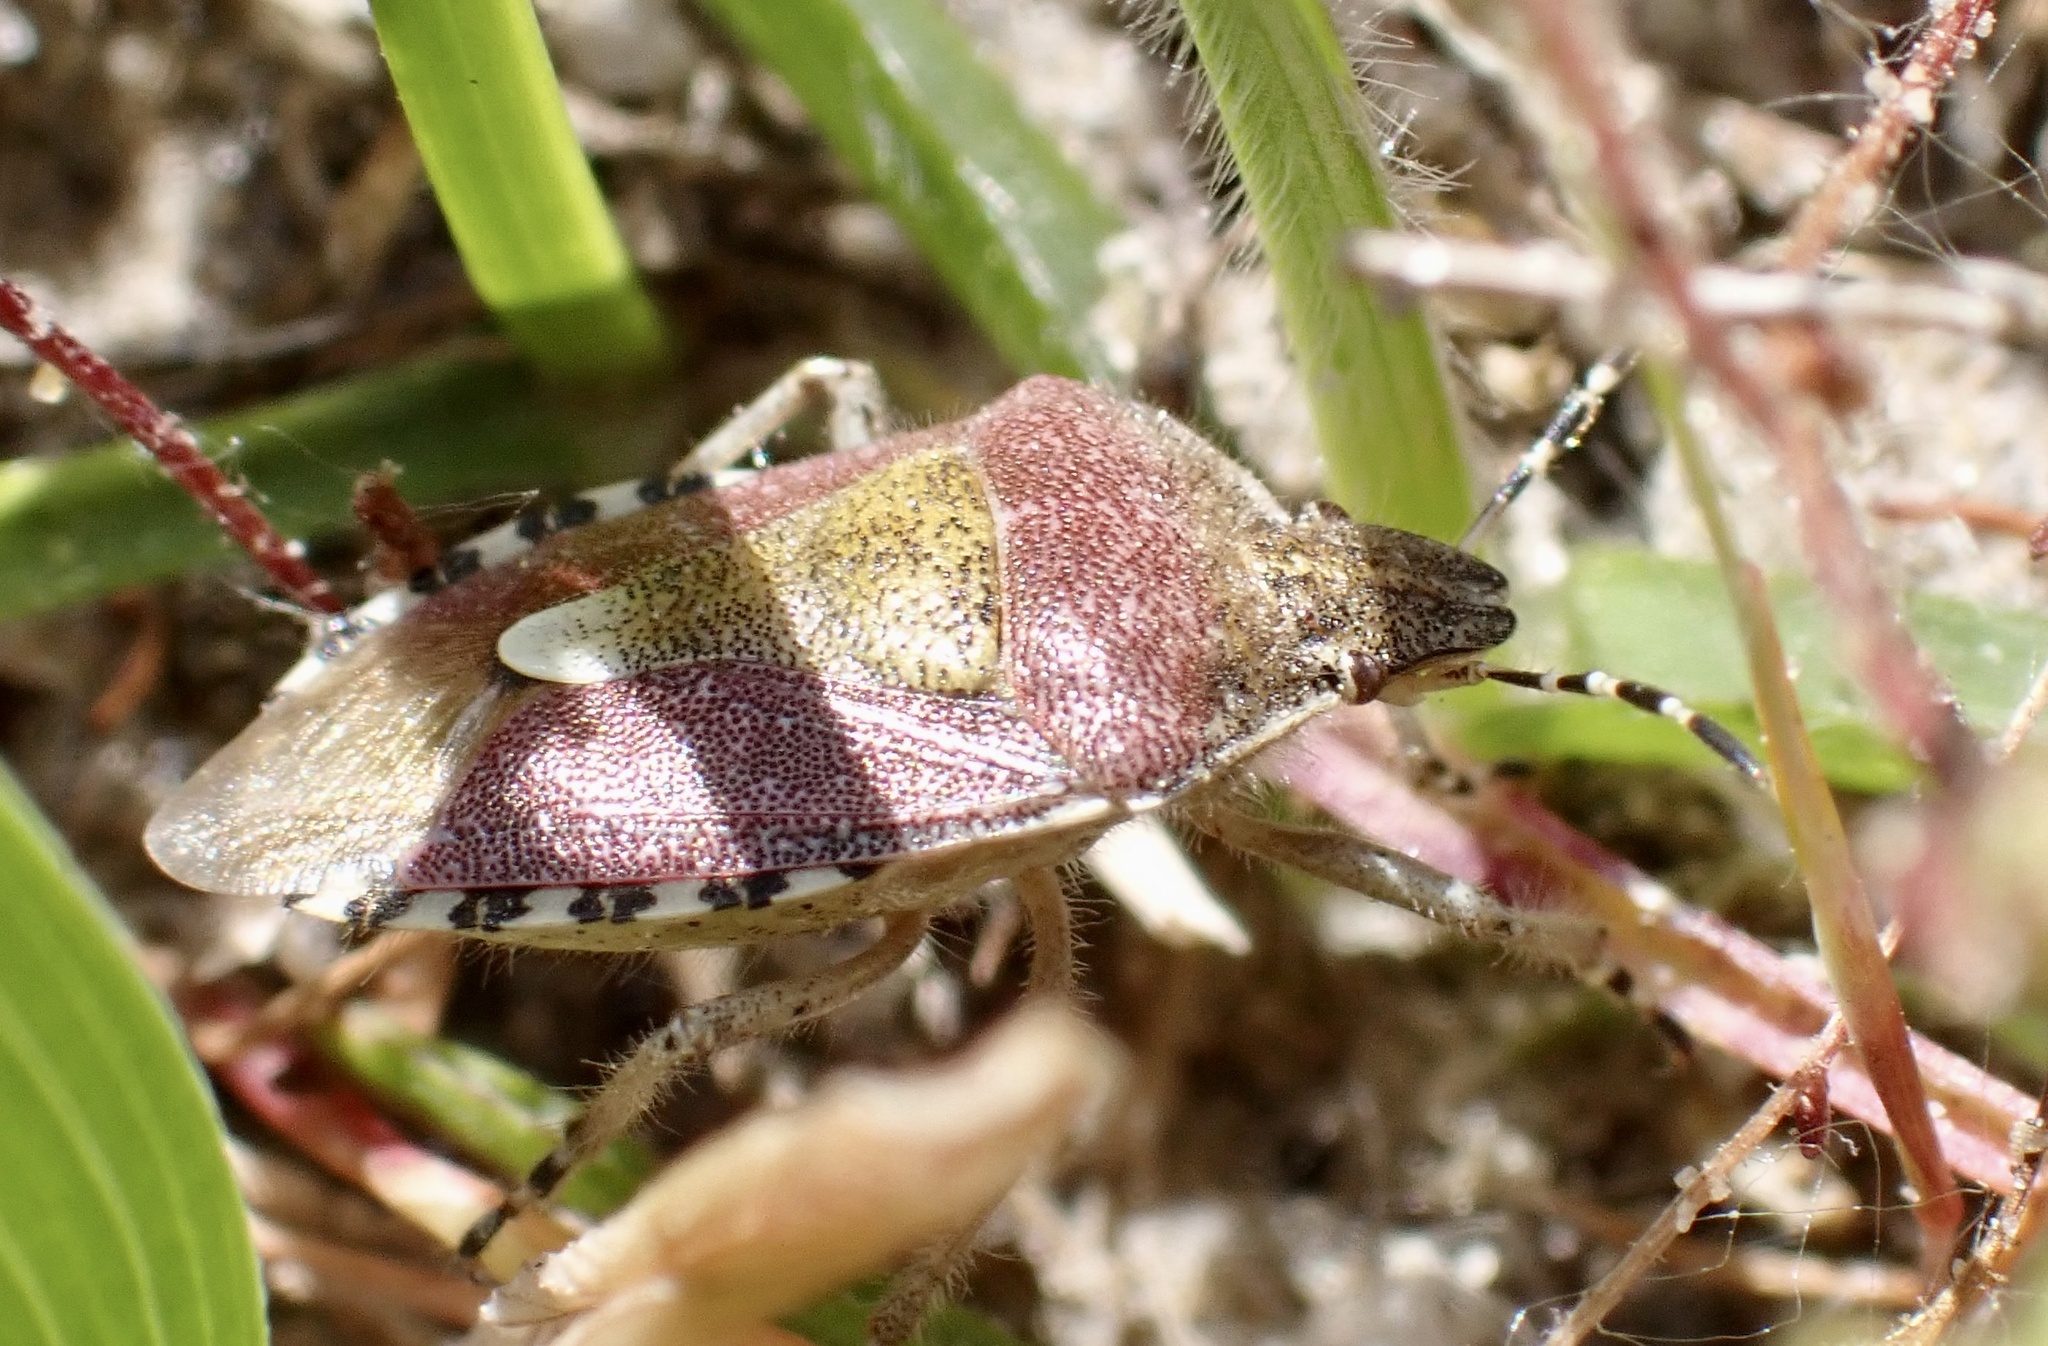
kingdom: Animalia
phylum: Arthropoda
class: Insecta
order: Hemiptera
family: Pentatomidae
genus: Dolycoris
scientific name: Dolycoris baccarum
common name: Sloe bug
